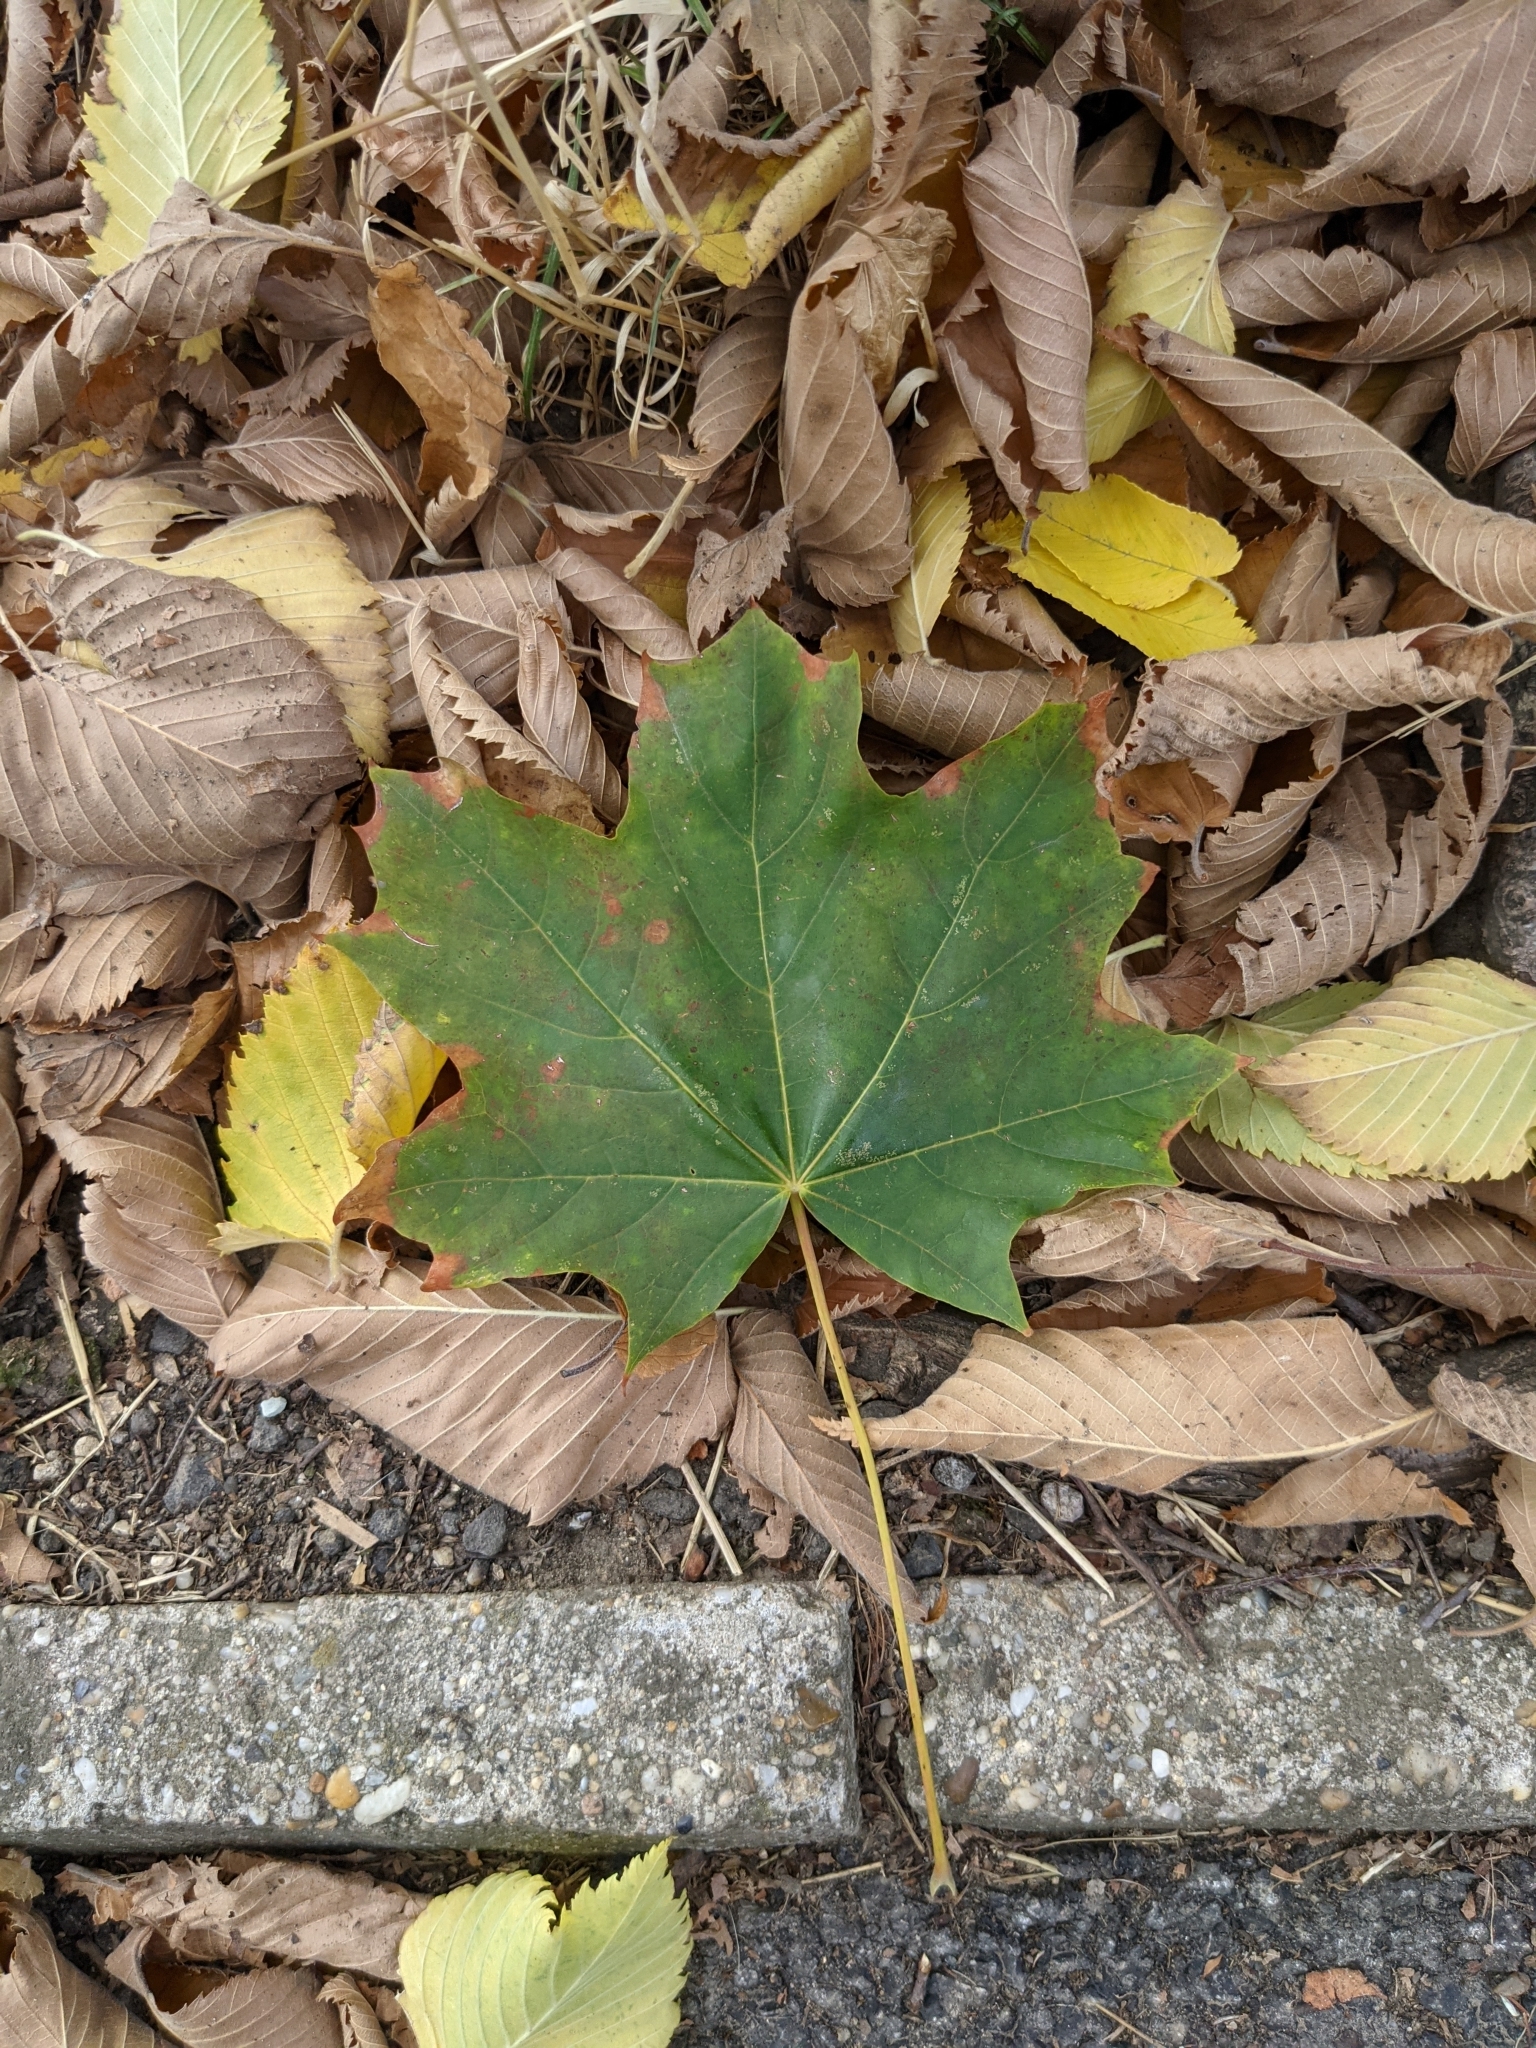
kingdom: Plantae
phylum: Tracheophyta
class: Magnoliopsida
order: Sapindales
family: Sapindaceae
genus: Acer
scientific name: Acer platanoides
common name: Norway maple
